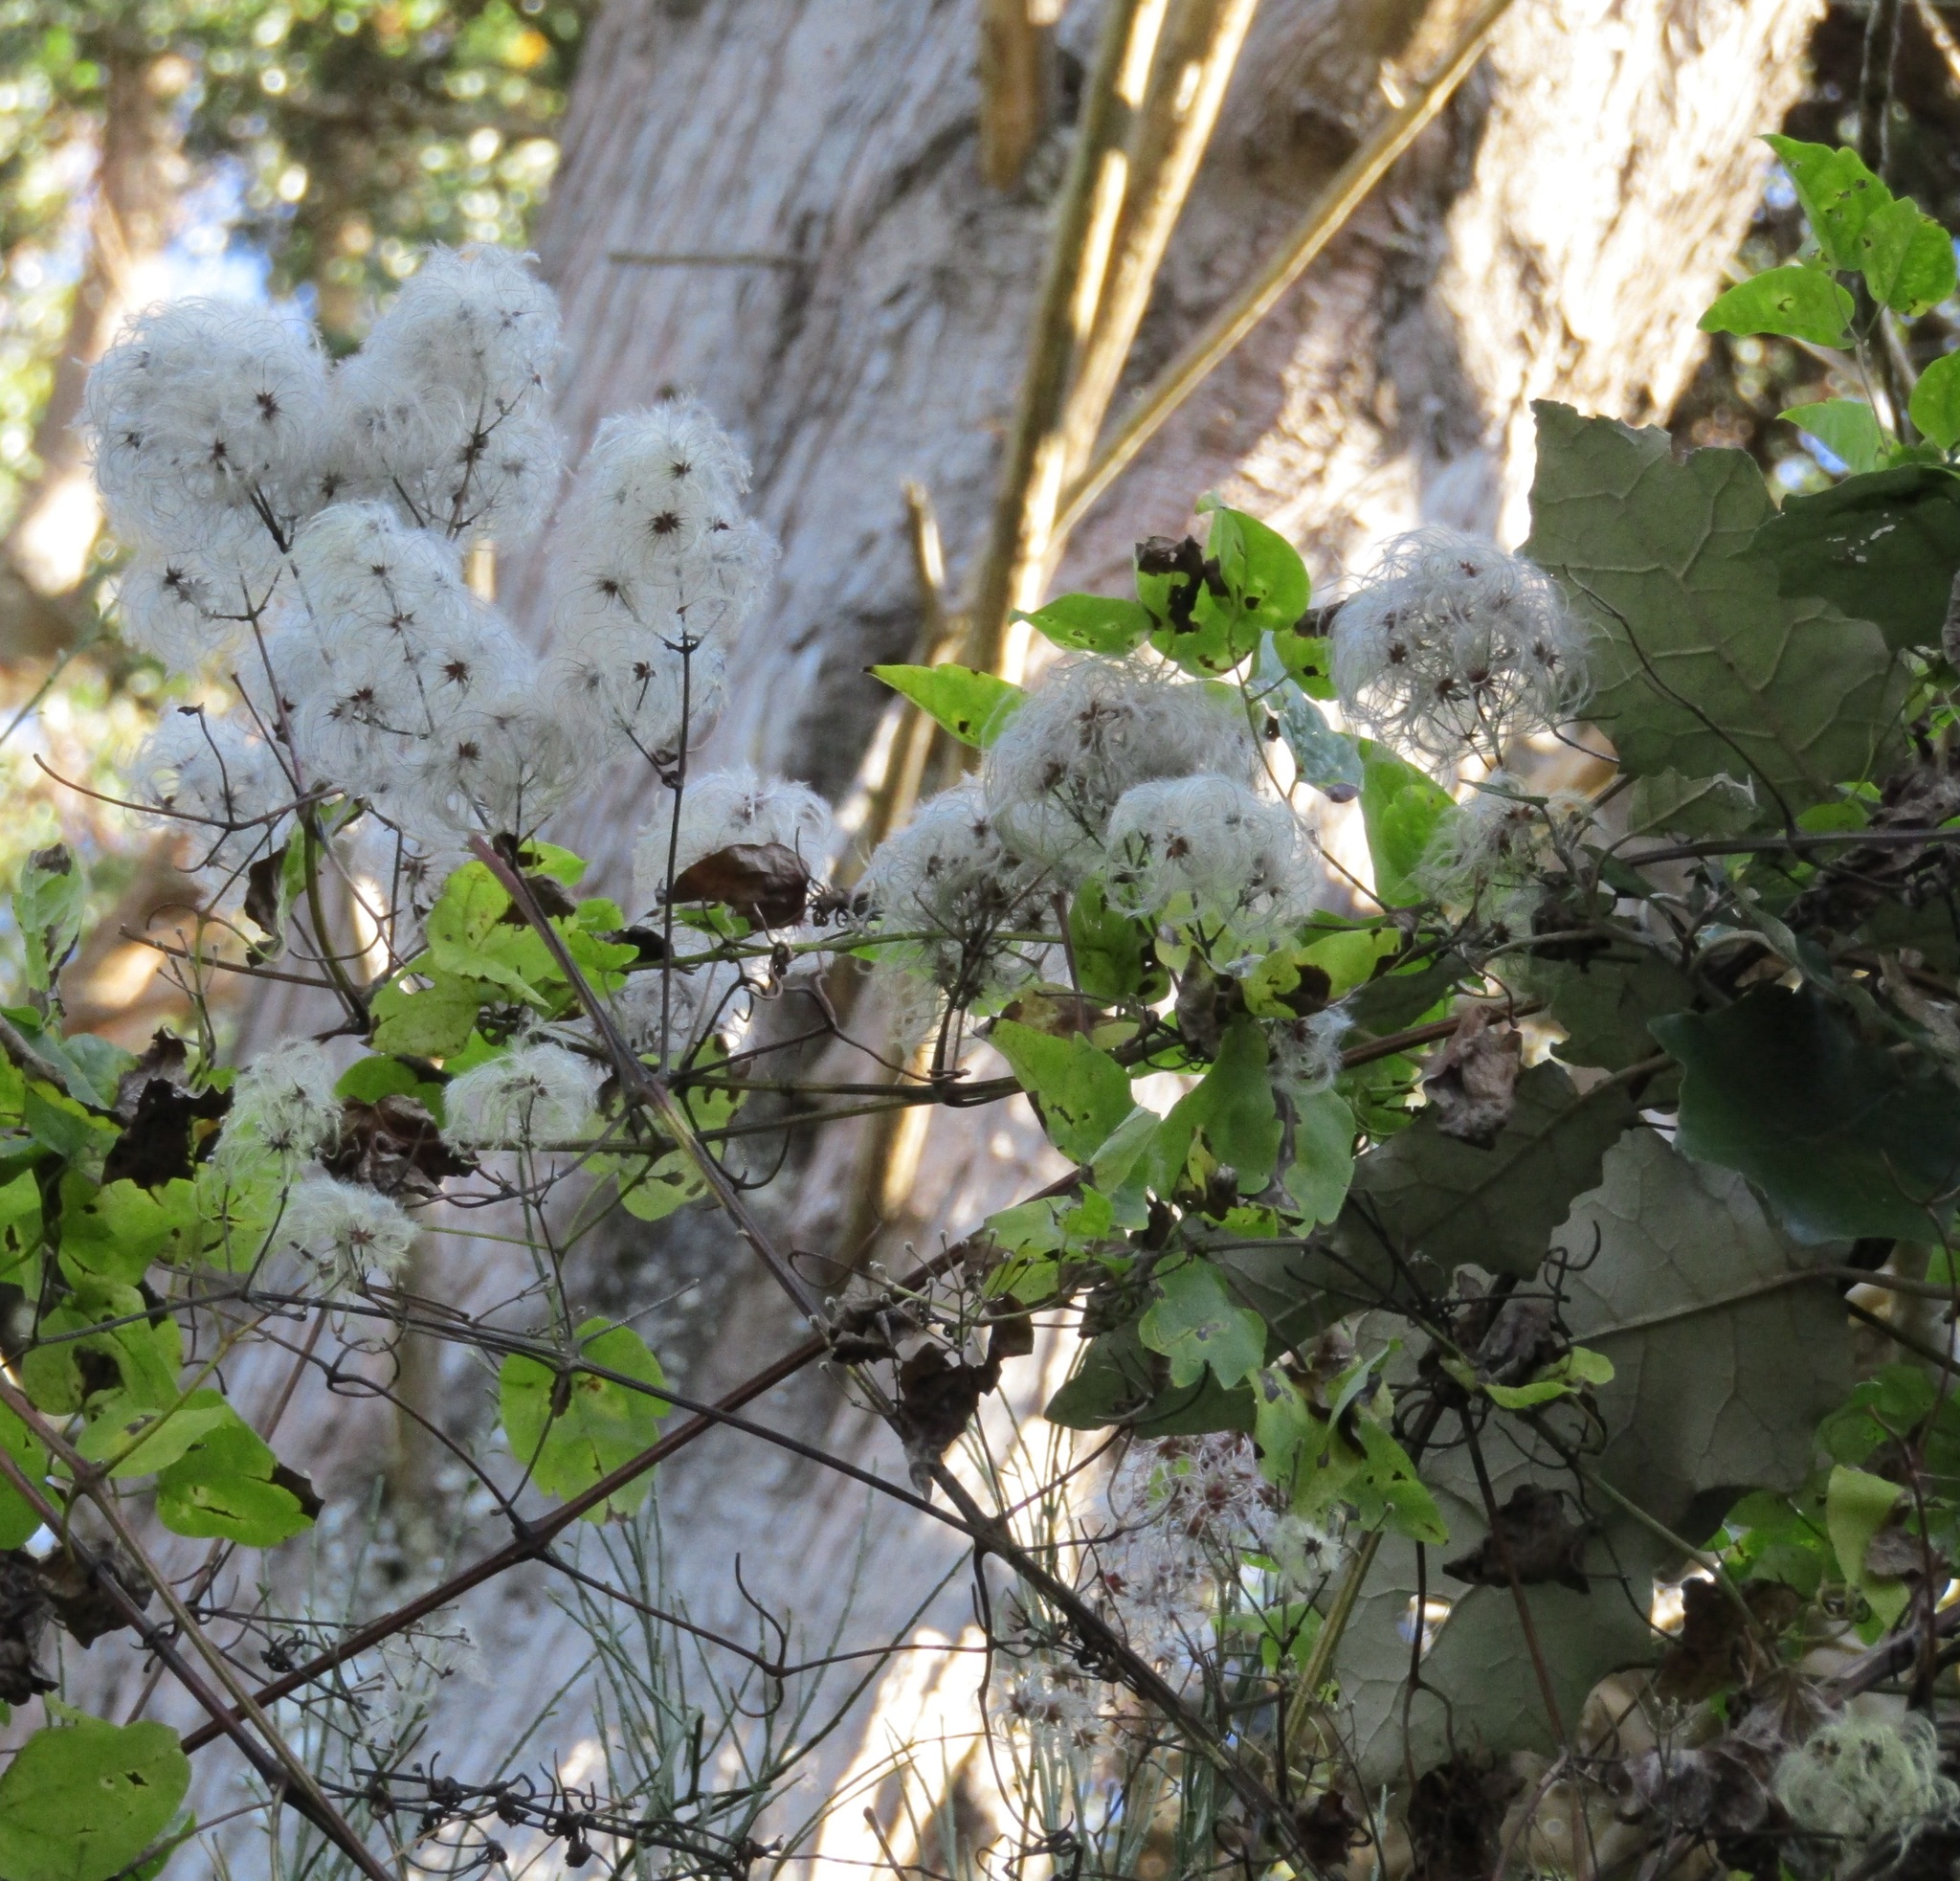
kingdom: Plantae
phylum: Tracheophyta
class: Magnoliopsida
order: Ranunculales
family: Ranunculaceae
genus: Clematis
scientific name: Clematis vitalba
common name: Evergreen clematis
